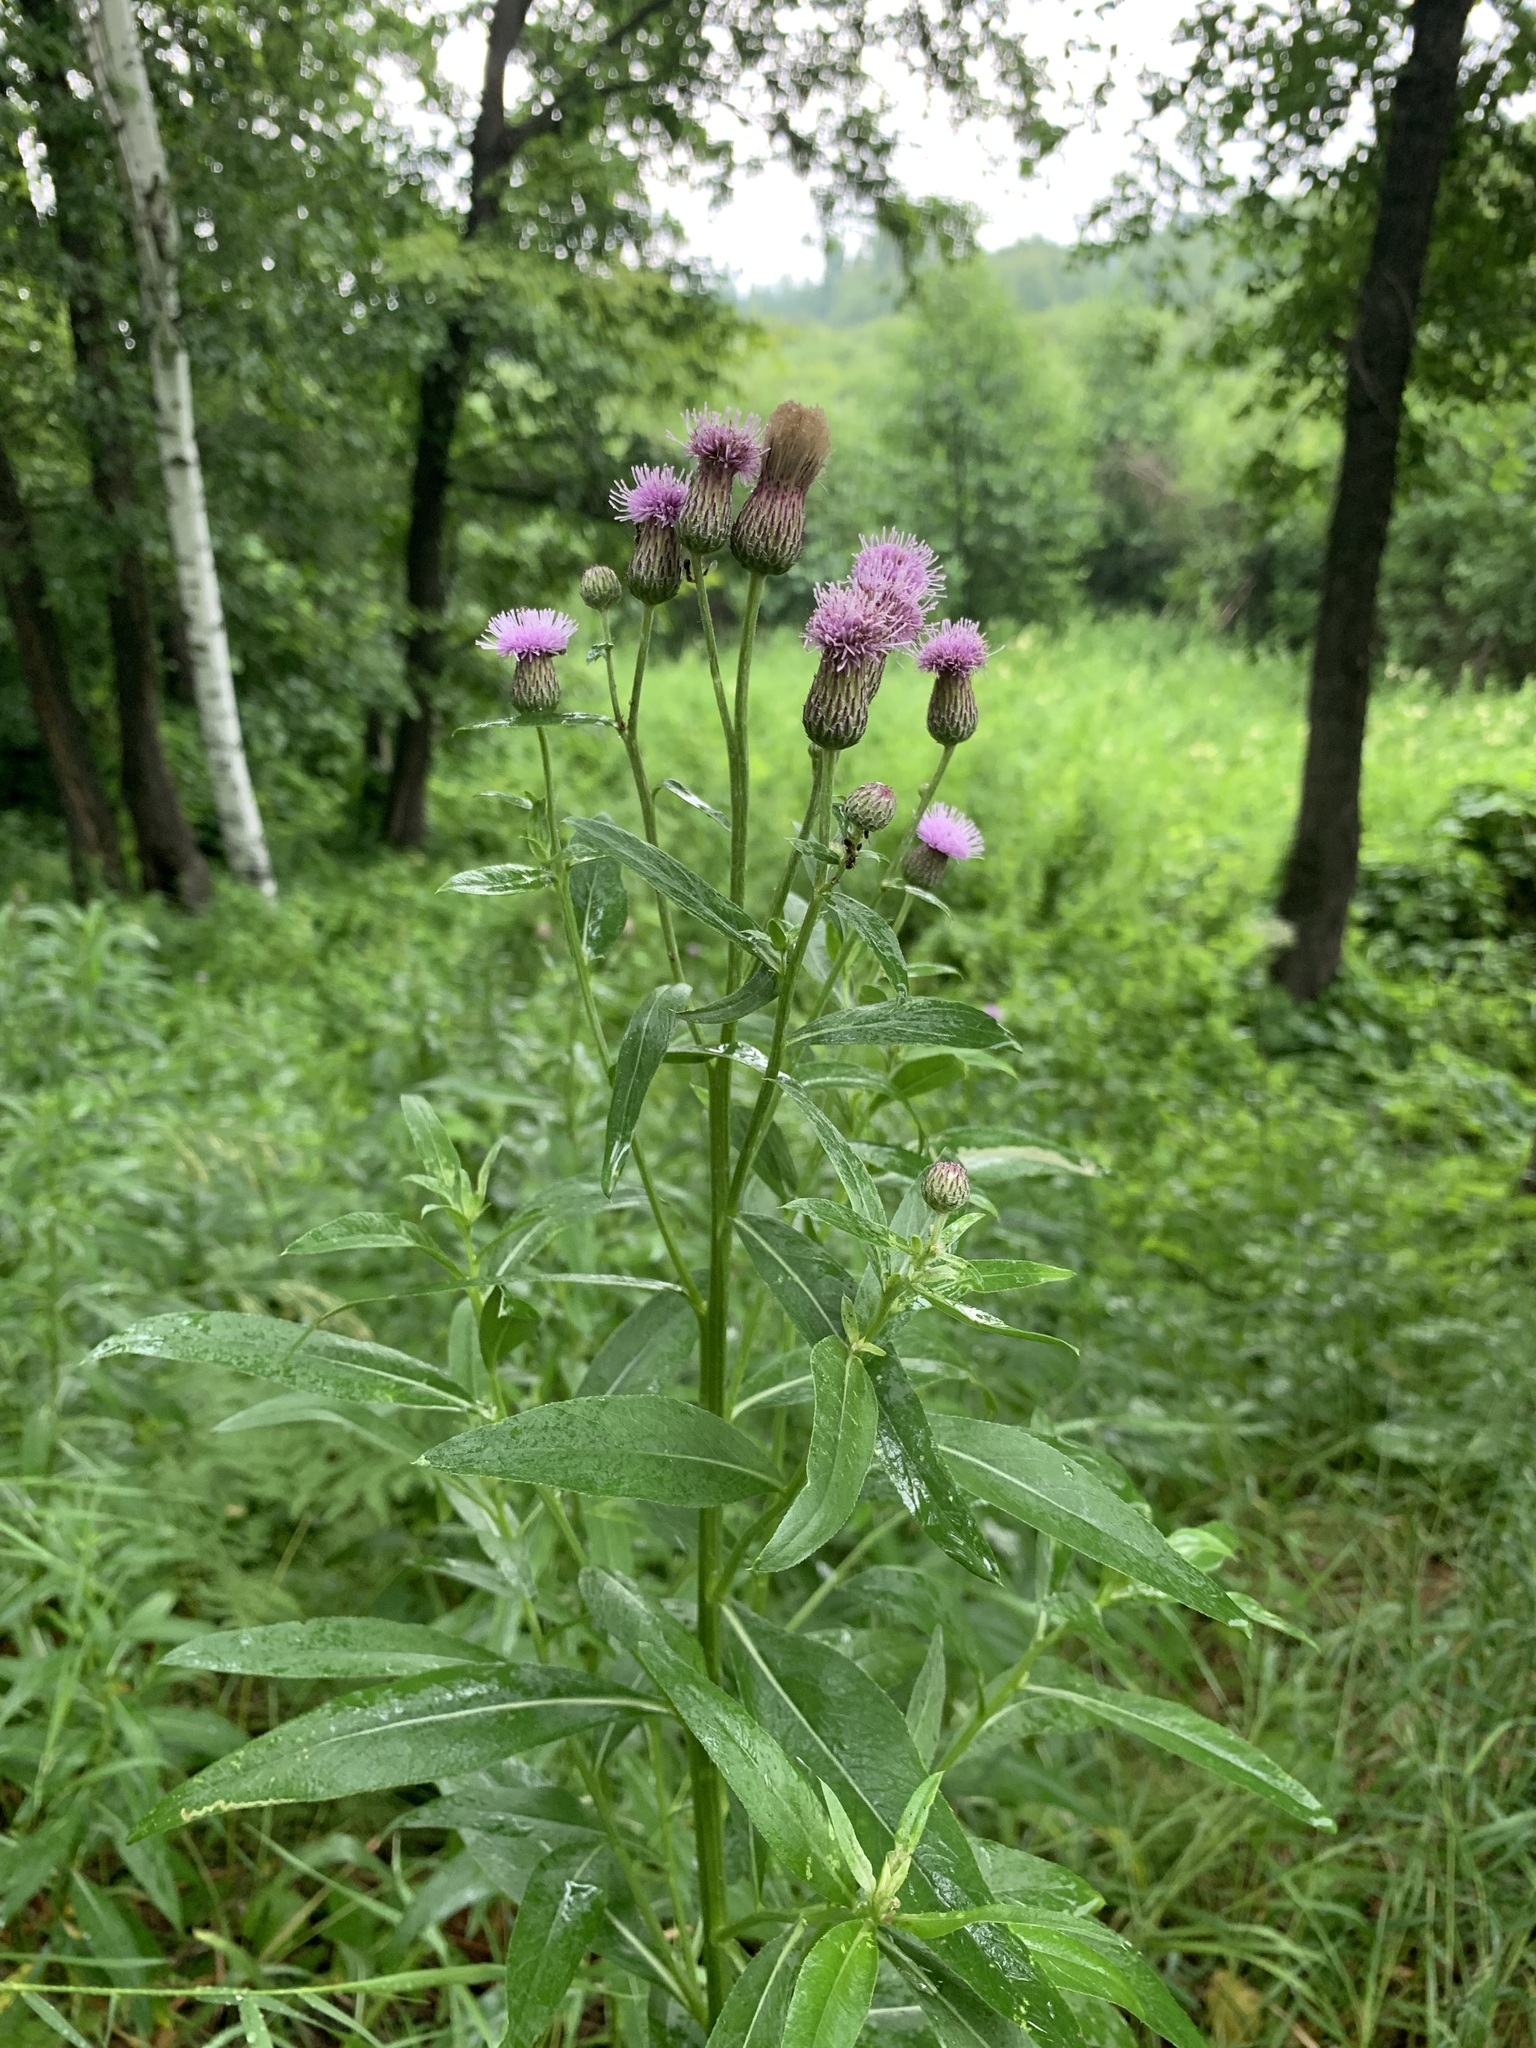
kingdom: Plantae
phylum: Tracheophyta
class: Magnoliopsida
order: Asterales
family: Asteraceae
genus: Cirsium
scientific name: Cirsium arvense
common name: Creeping thistle
